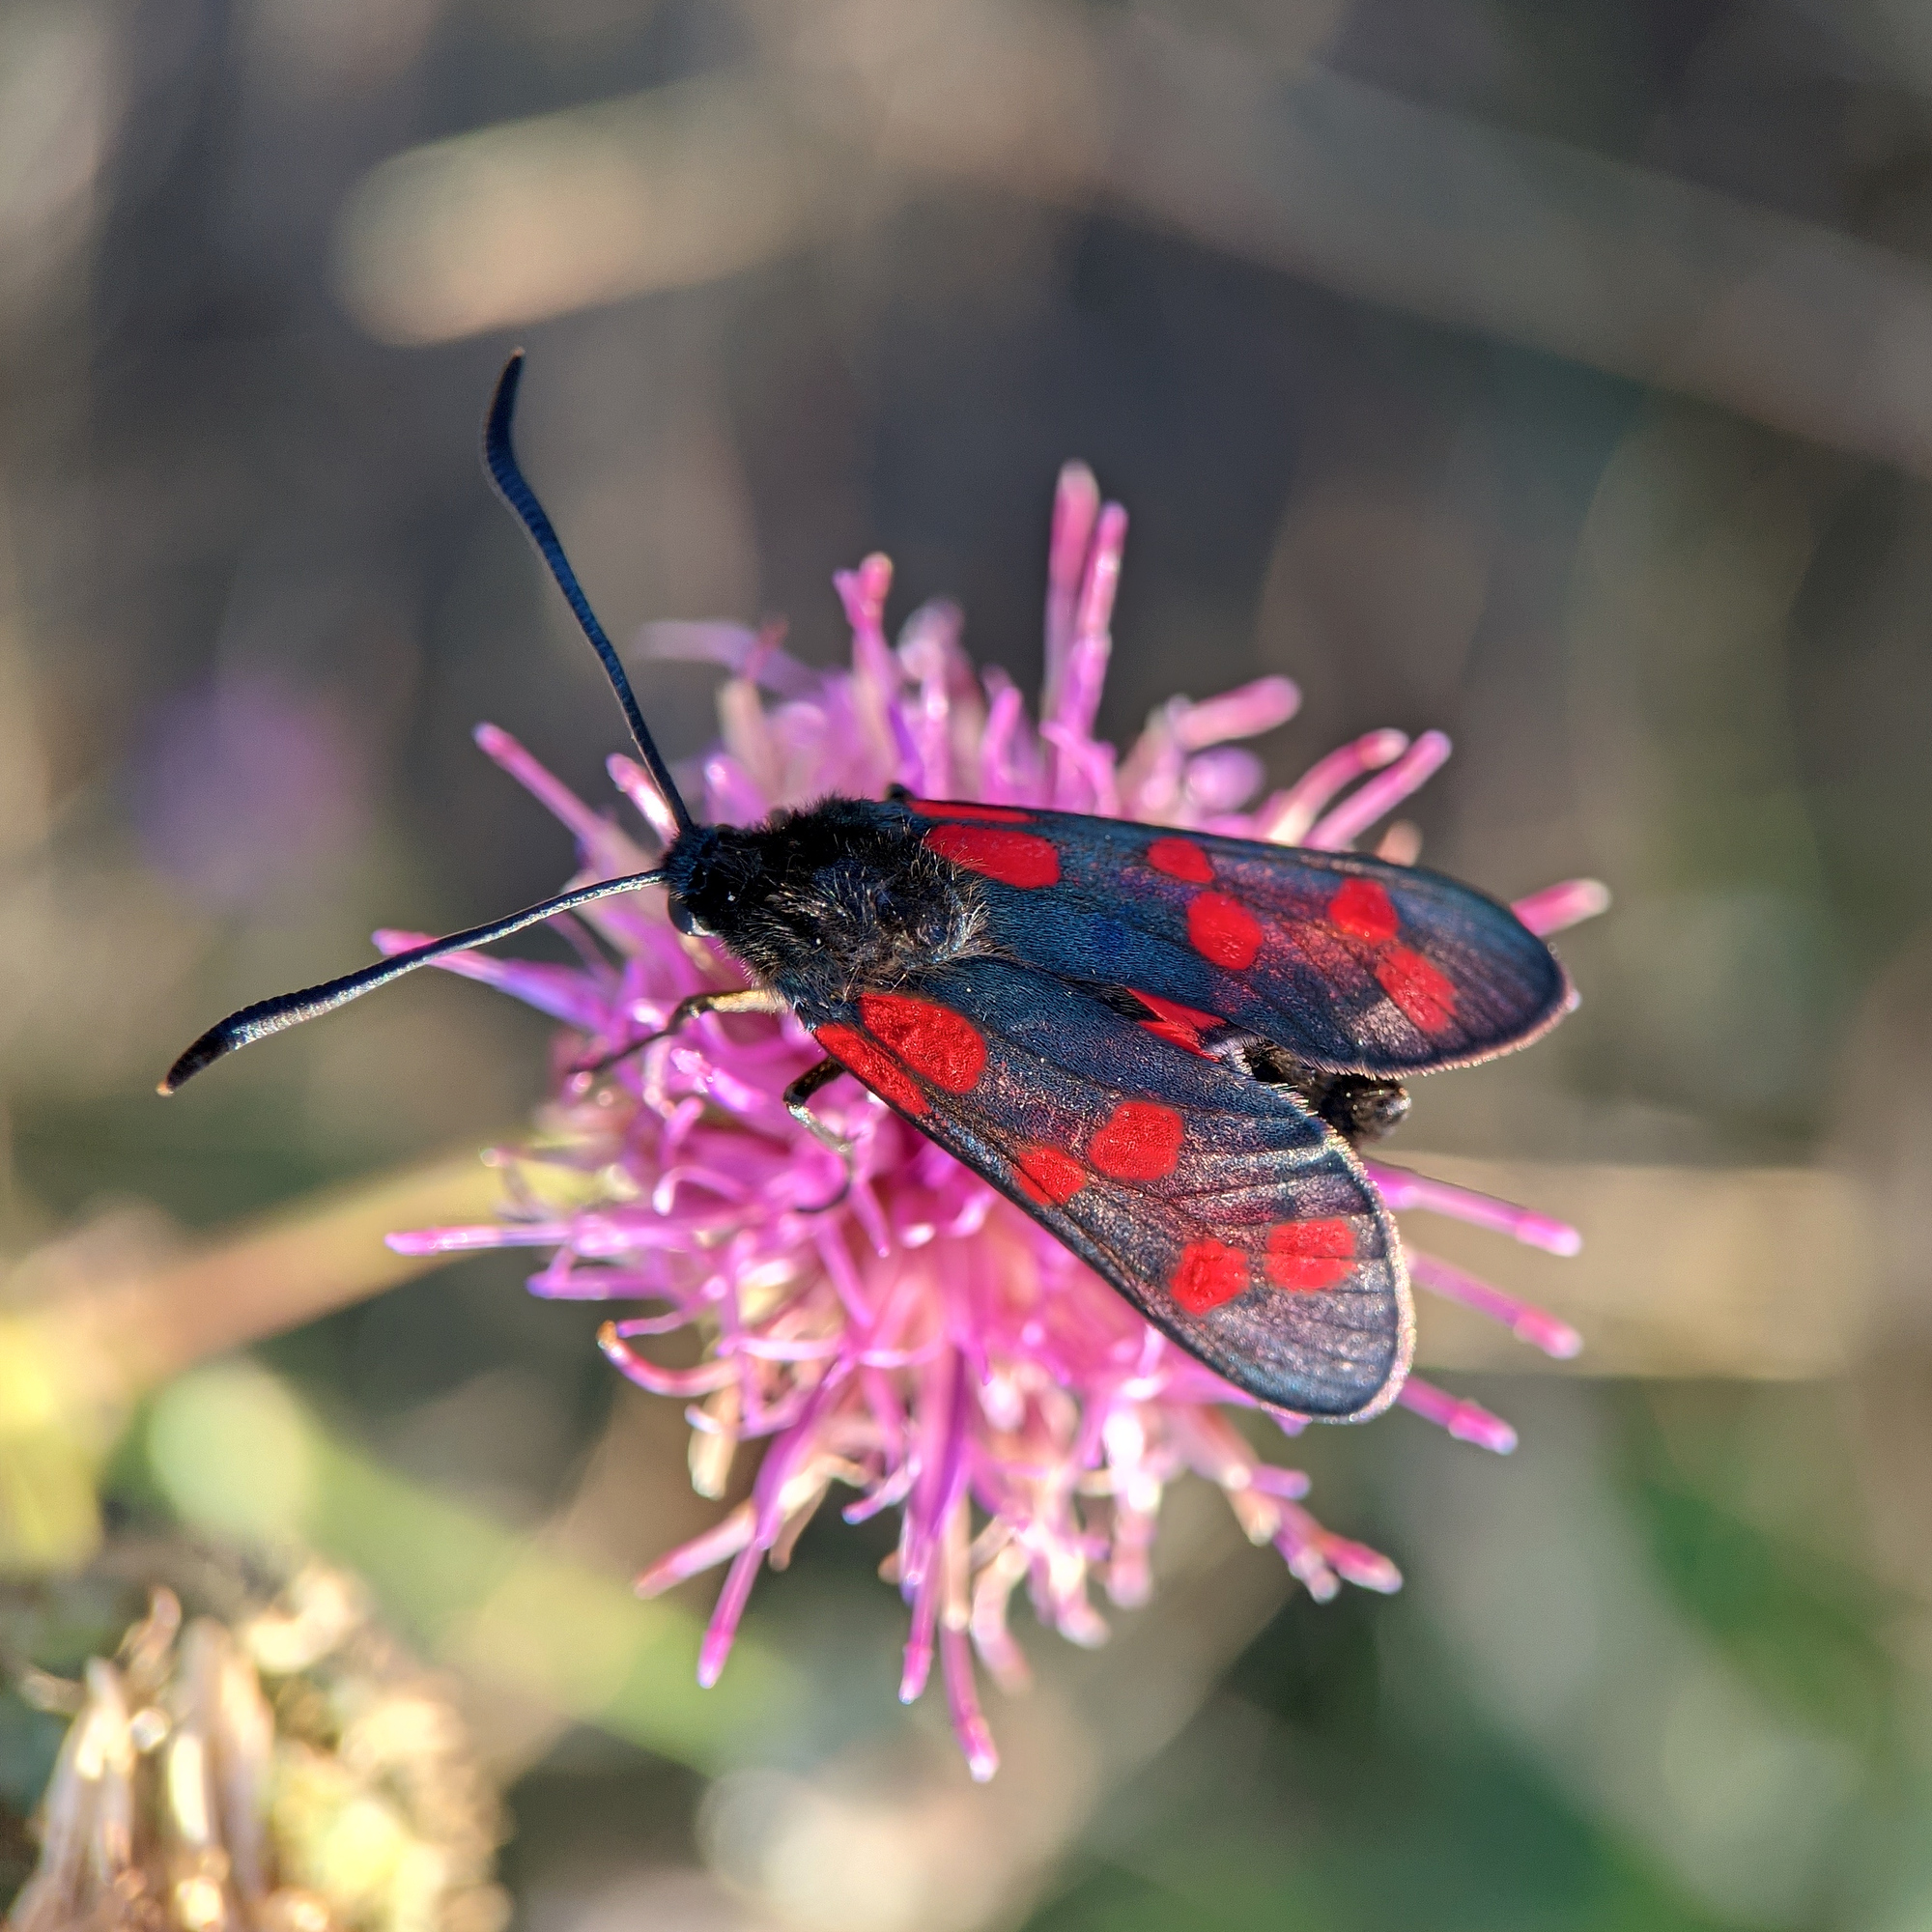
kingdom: Animalia
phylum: Arthropoda
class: Insecta
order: Lepidoptera
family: Zygaenidae
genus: Zygaena
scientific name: Zygaena filipendulae
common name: Six-spot burnet
